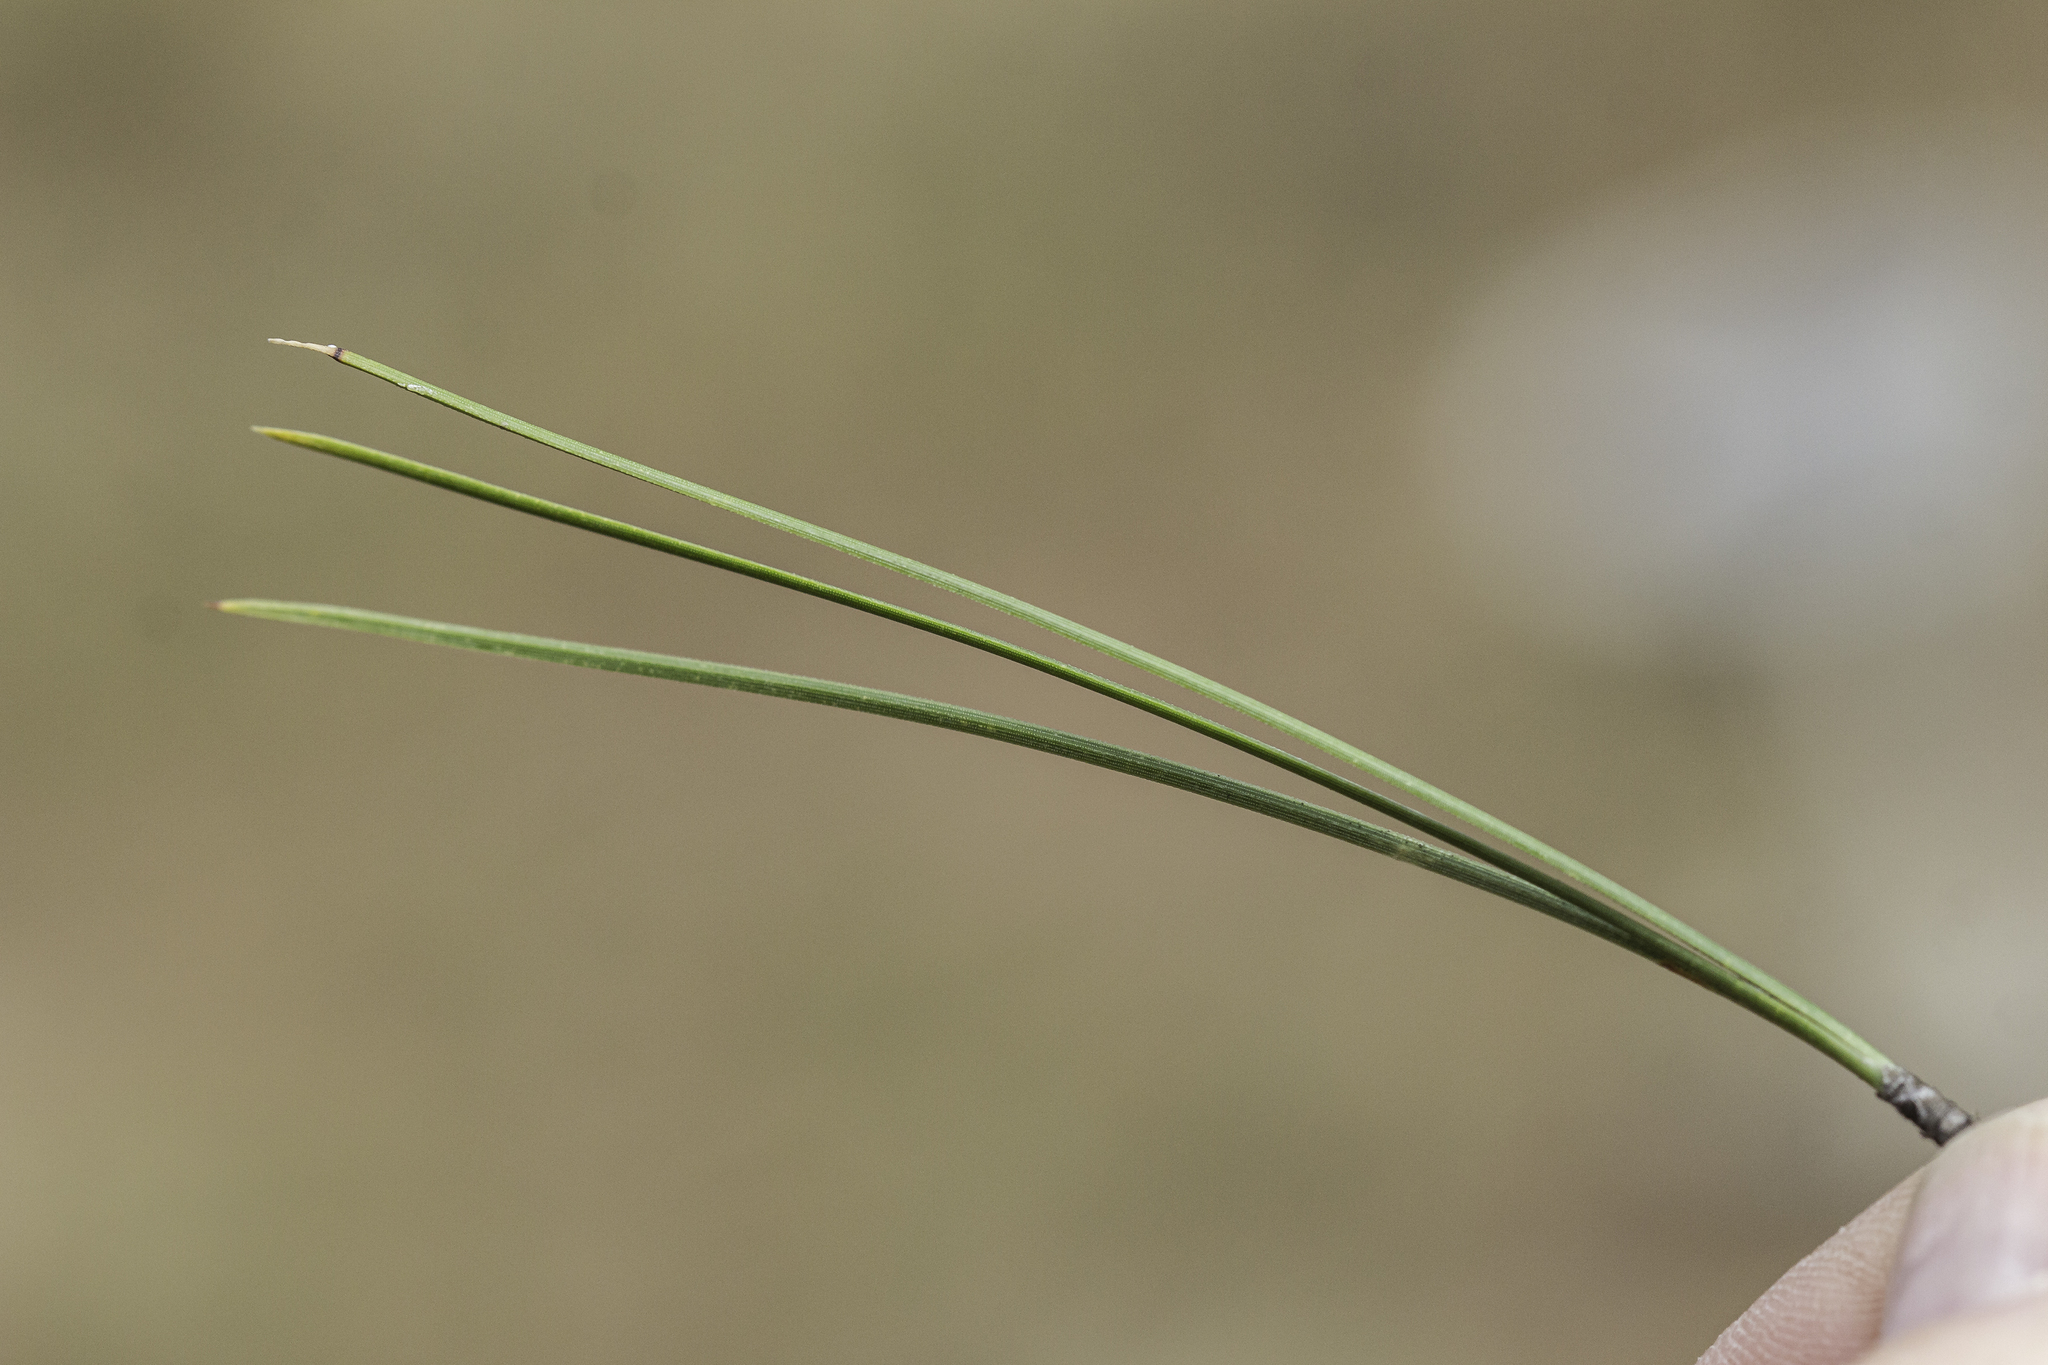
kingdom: Plantae
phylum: Tracheophyta
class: Pinopsida
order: Pinales
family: Pinaceae
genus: Pinus
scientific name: Pinus ponderosa
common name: Western yellow-pine
